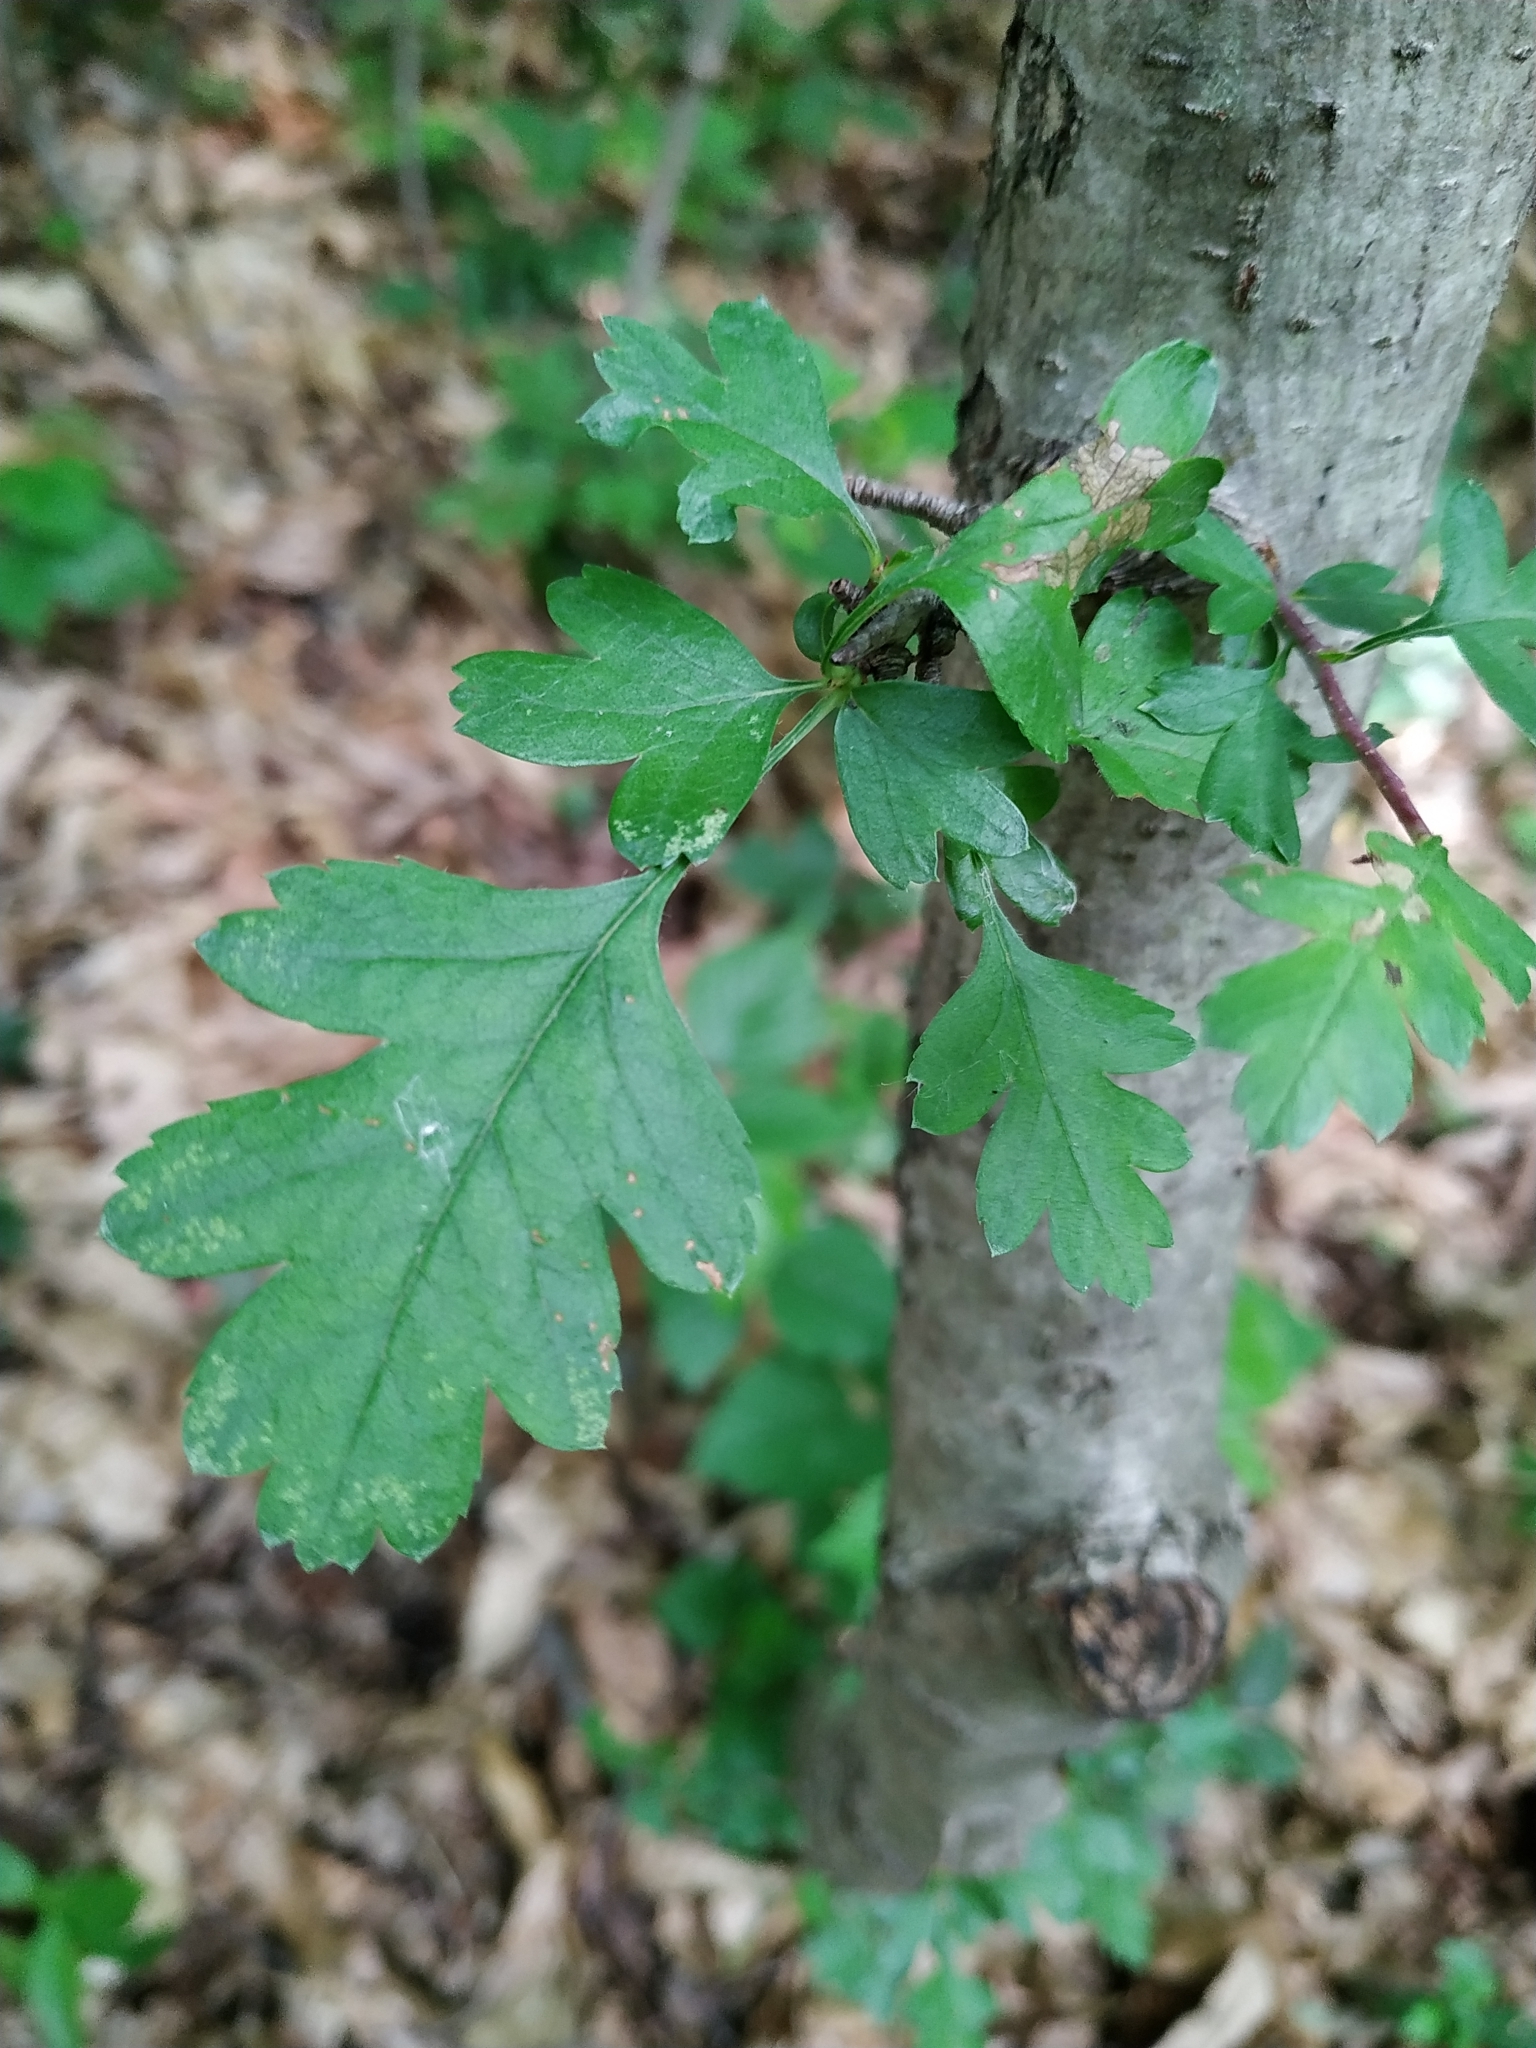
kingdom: Plantae
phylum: Tracheophyta
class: Magnoliopsida
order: Rosales
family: Rosaceae
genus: Crataegus
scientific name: Crataegus monogyna
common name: Hawthorn
